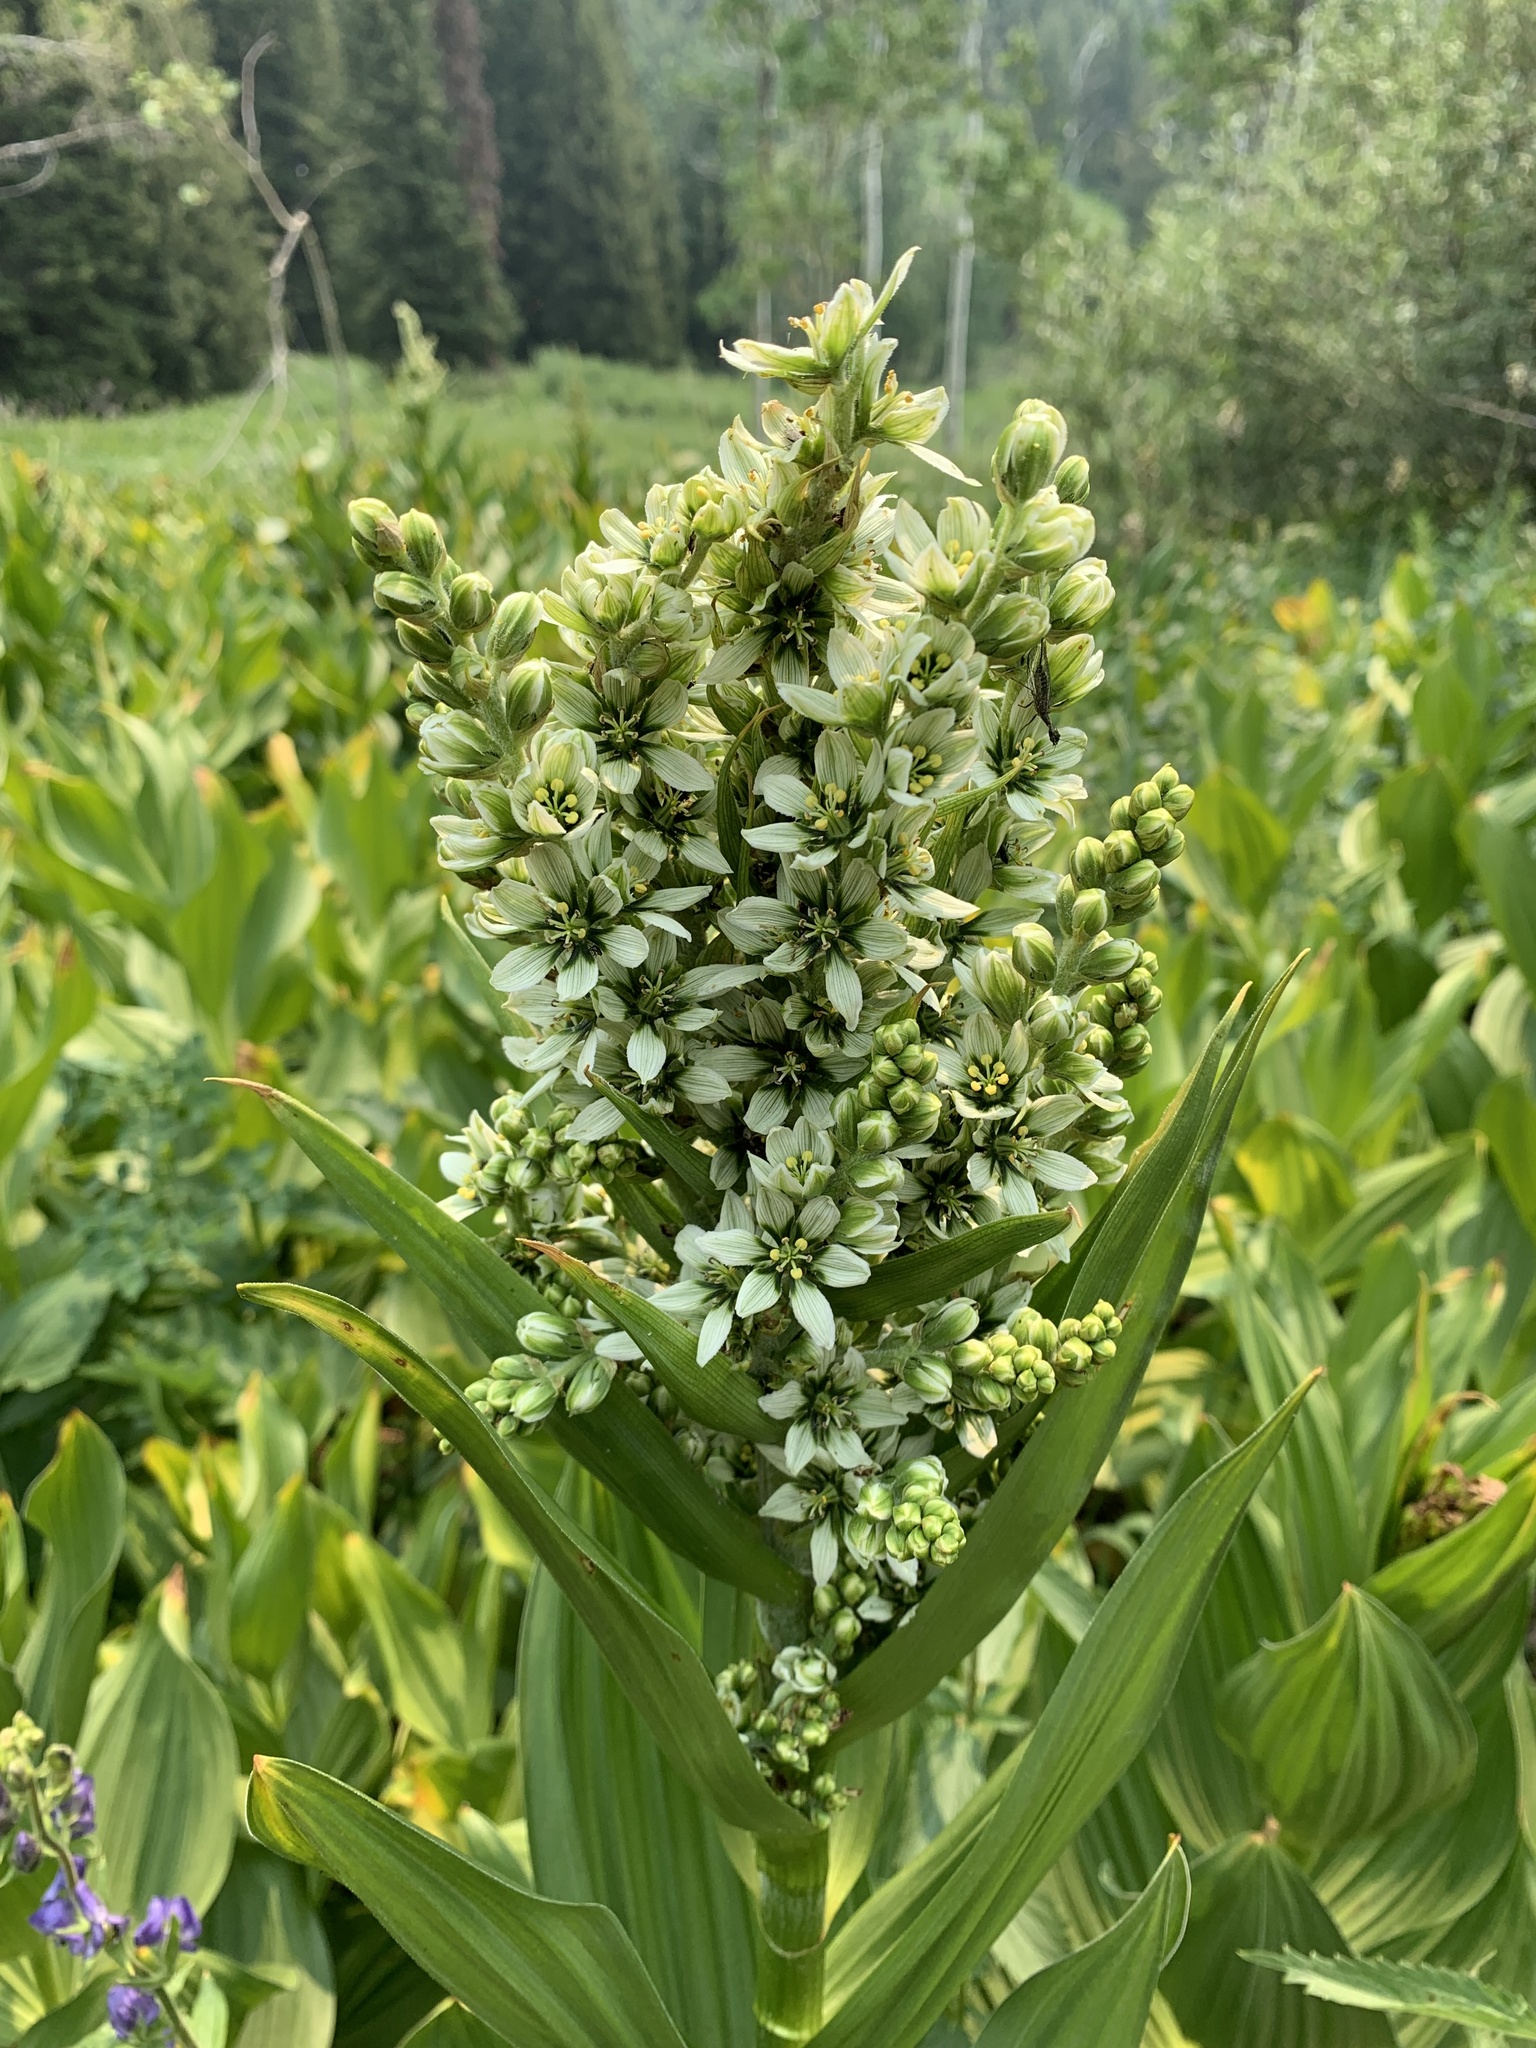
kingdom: Plantae
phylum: Tracheophyta
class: Liliopsida
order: Liliales
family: Melanthiaceae
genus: Veratrum
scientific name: Veratrum californicum
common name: California veratrum
